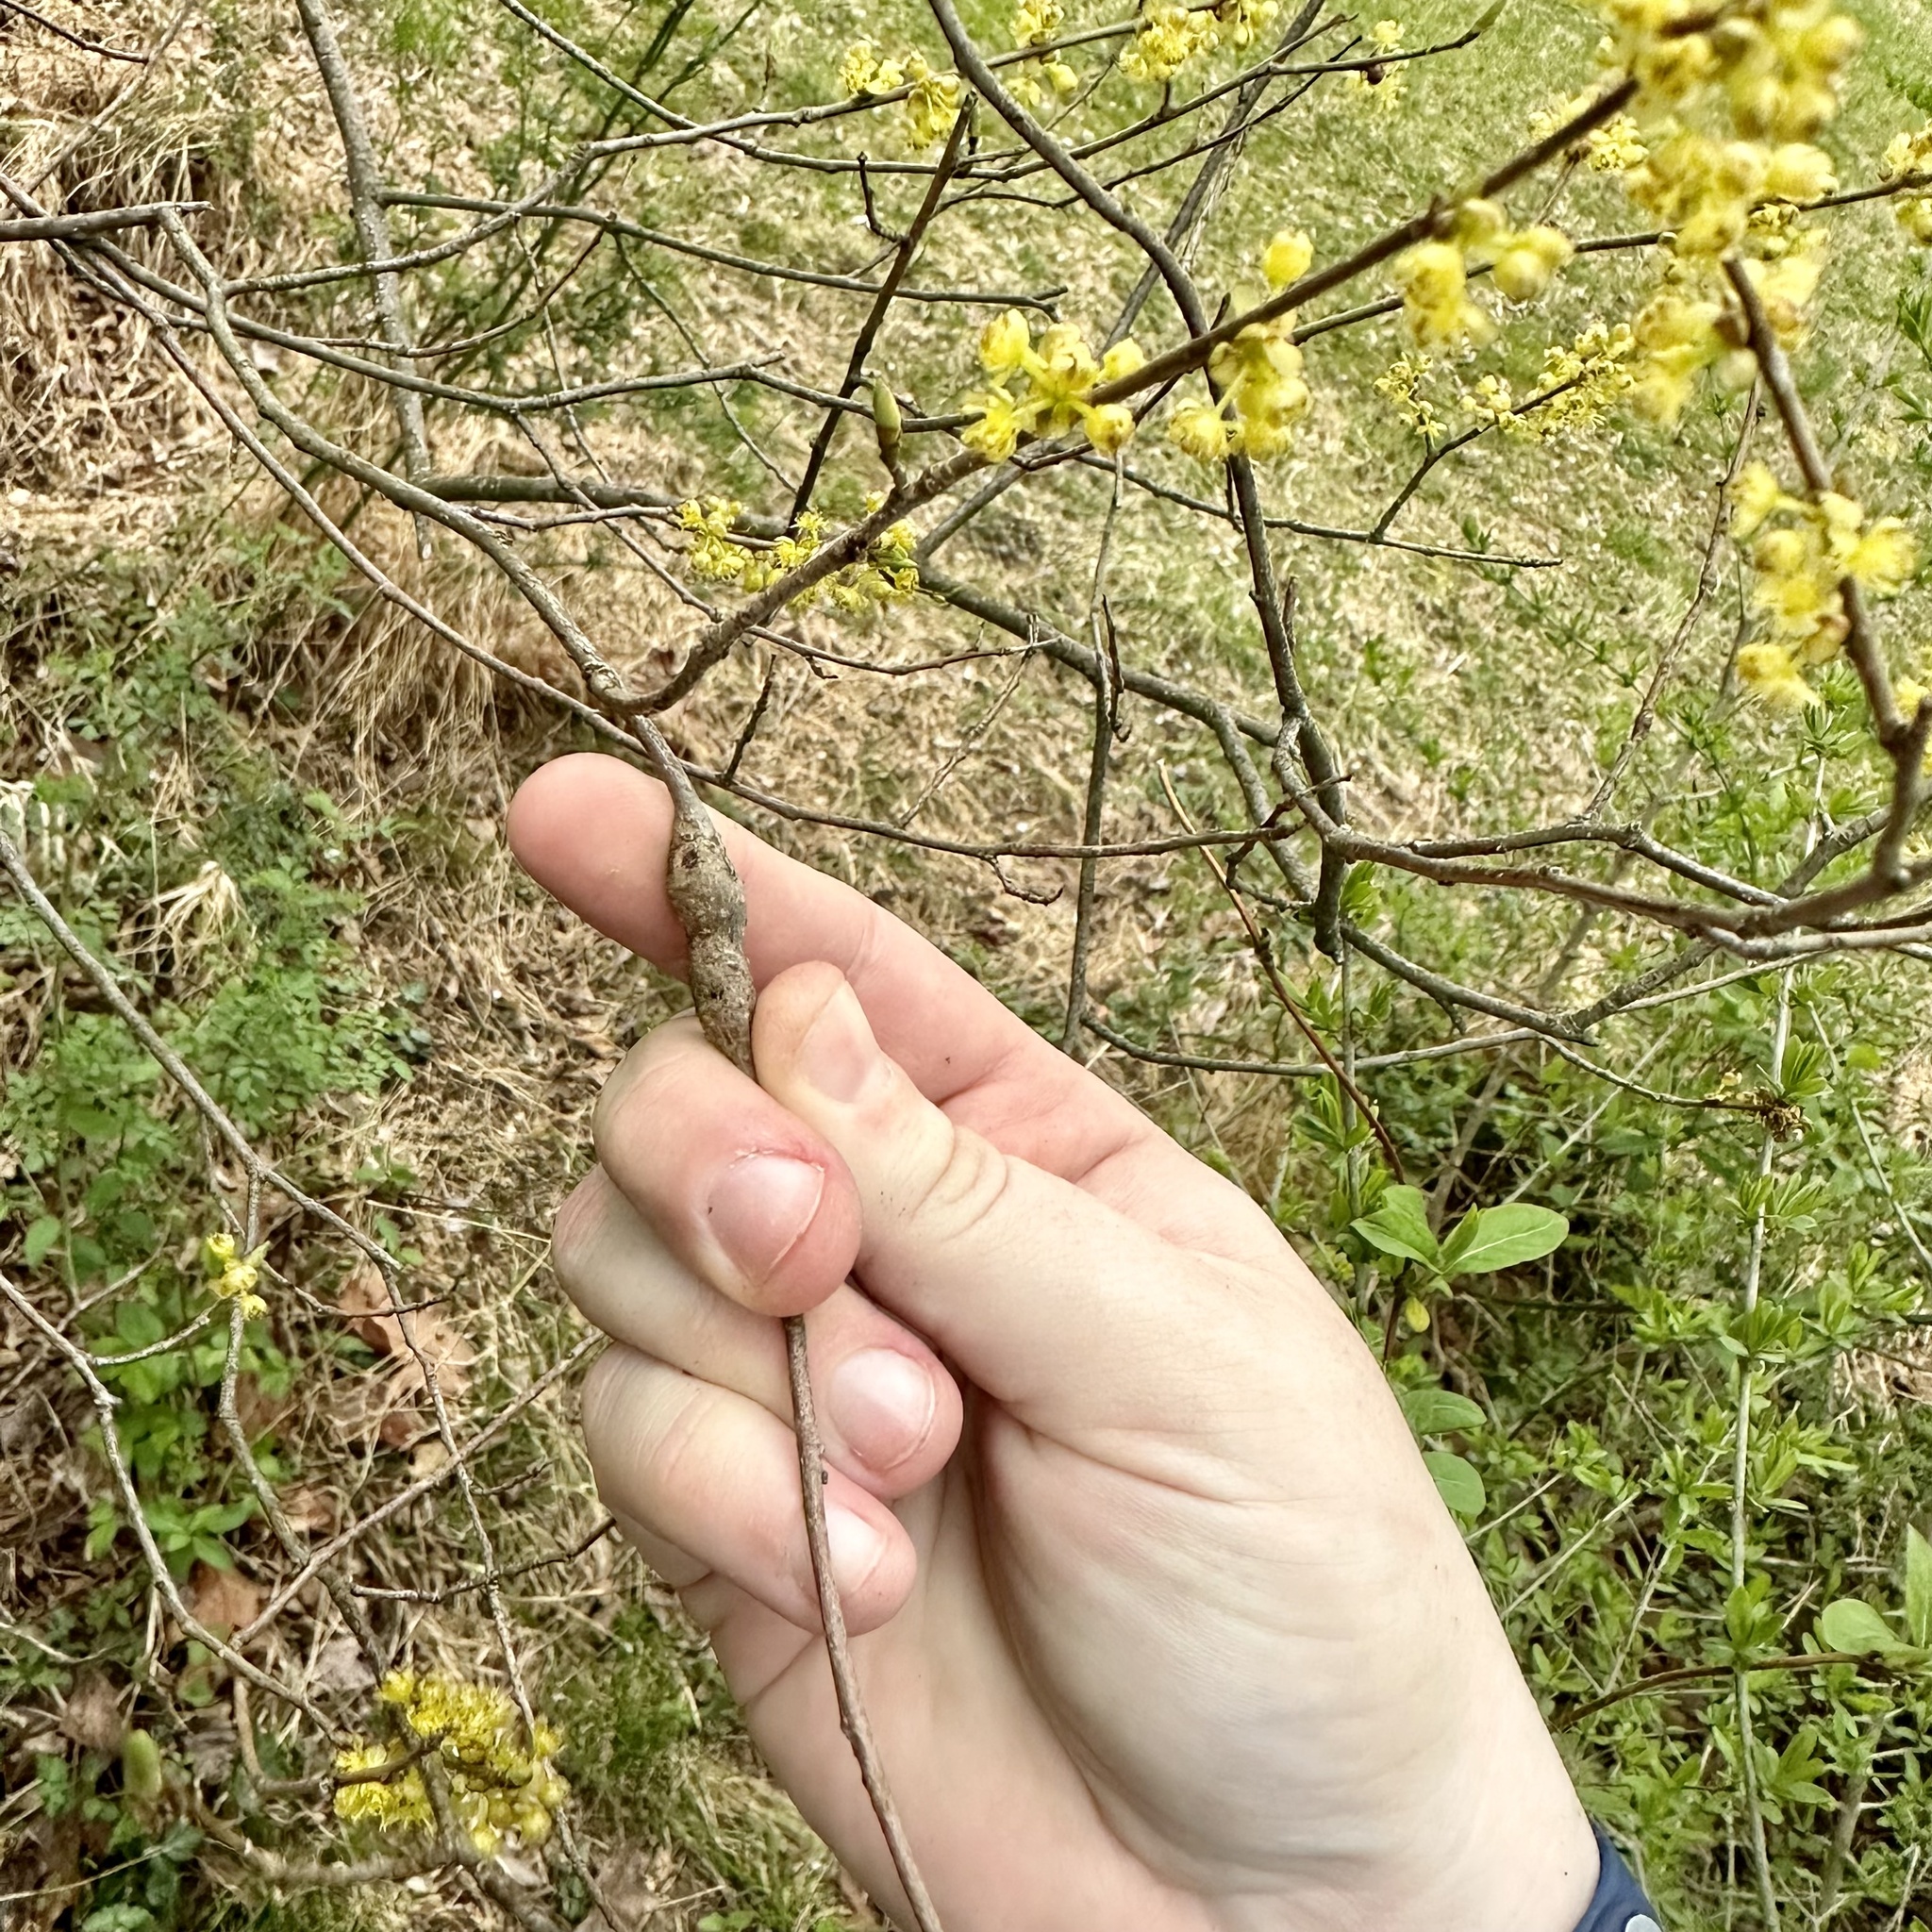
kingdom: Animalia
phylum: Arthropoda
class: Insecta
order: Diptera
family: Cecidomyiidae
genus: Neolasioptera
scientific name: Neolasioptera linderae
